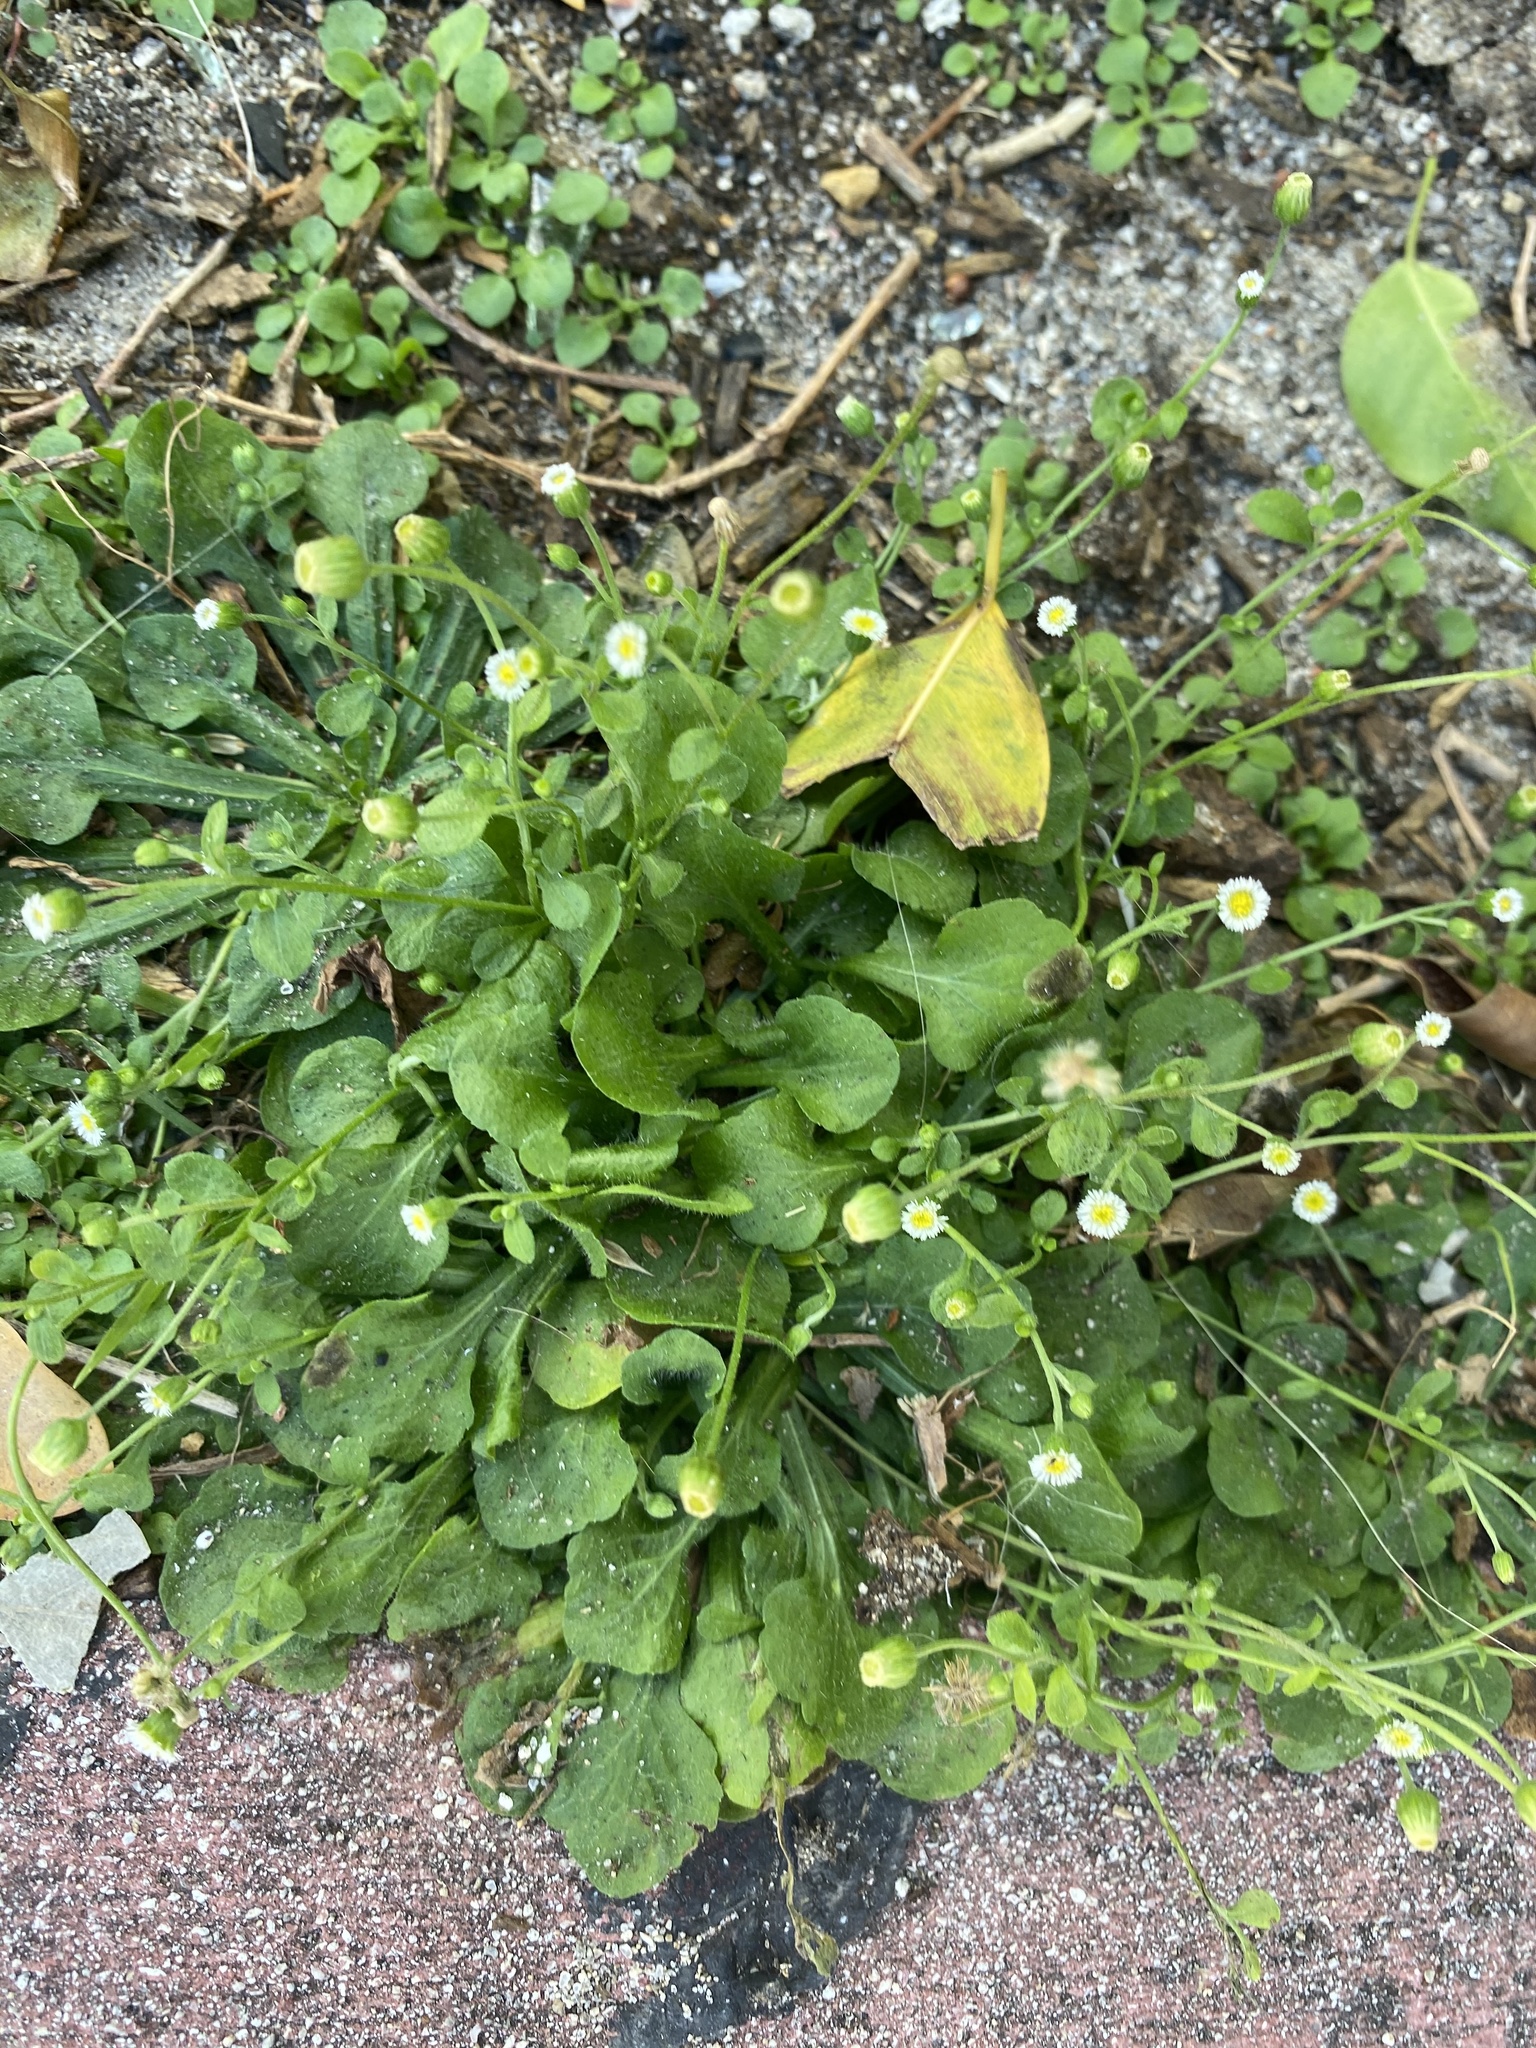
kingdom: Plantae
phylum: Tracheophyta
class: Magnoliopsida
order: Asterales
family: Asteraceae
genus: Erigeron
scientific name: Erigeron bellioides
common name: Bellorita
